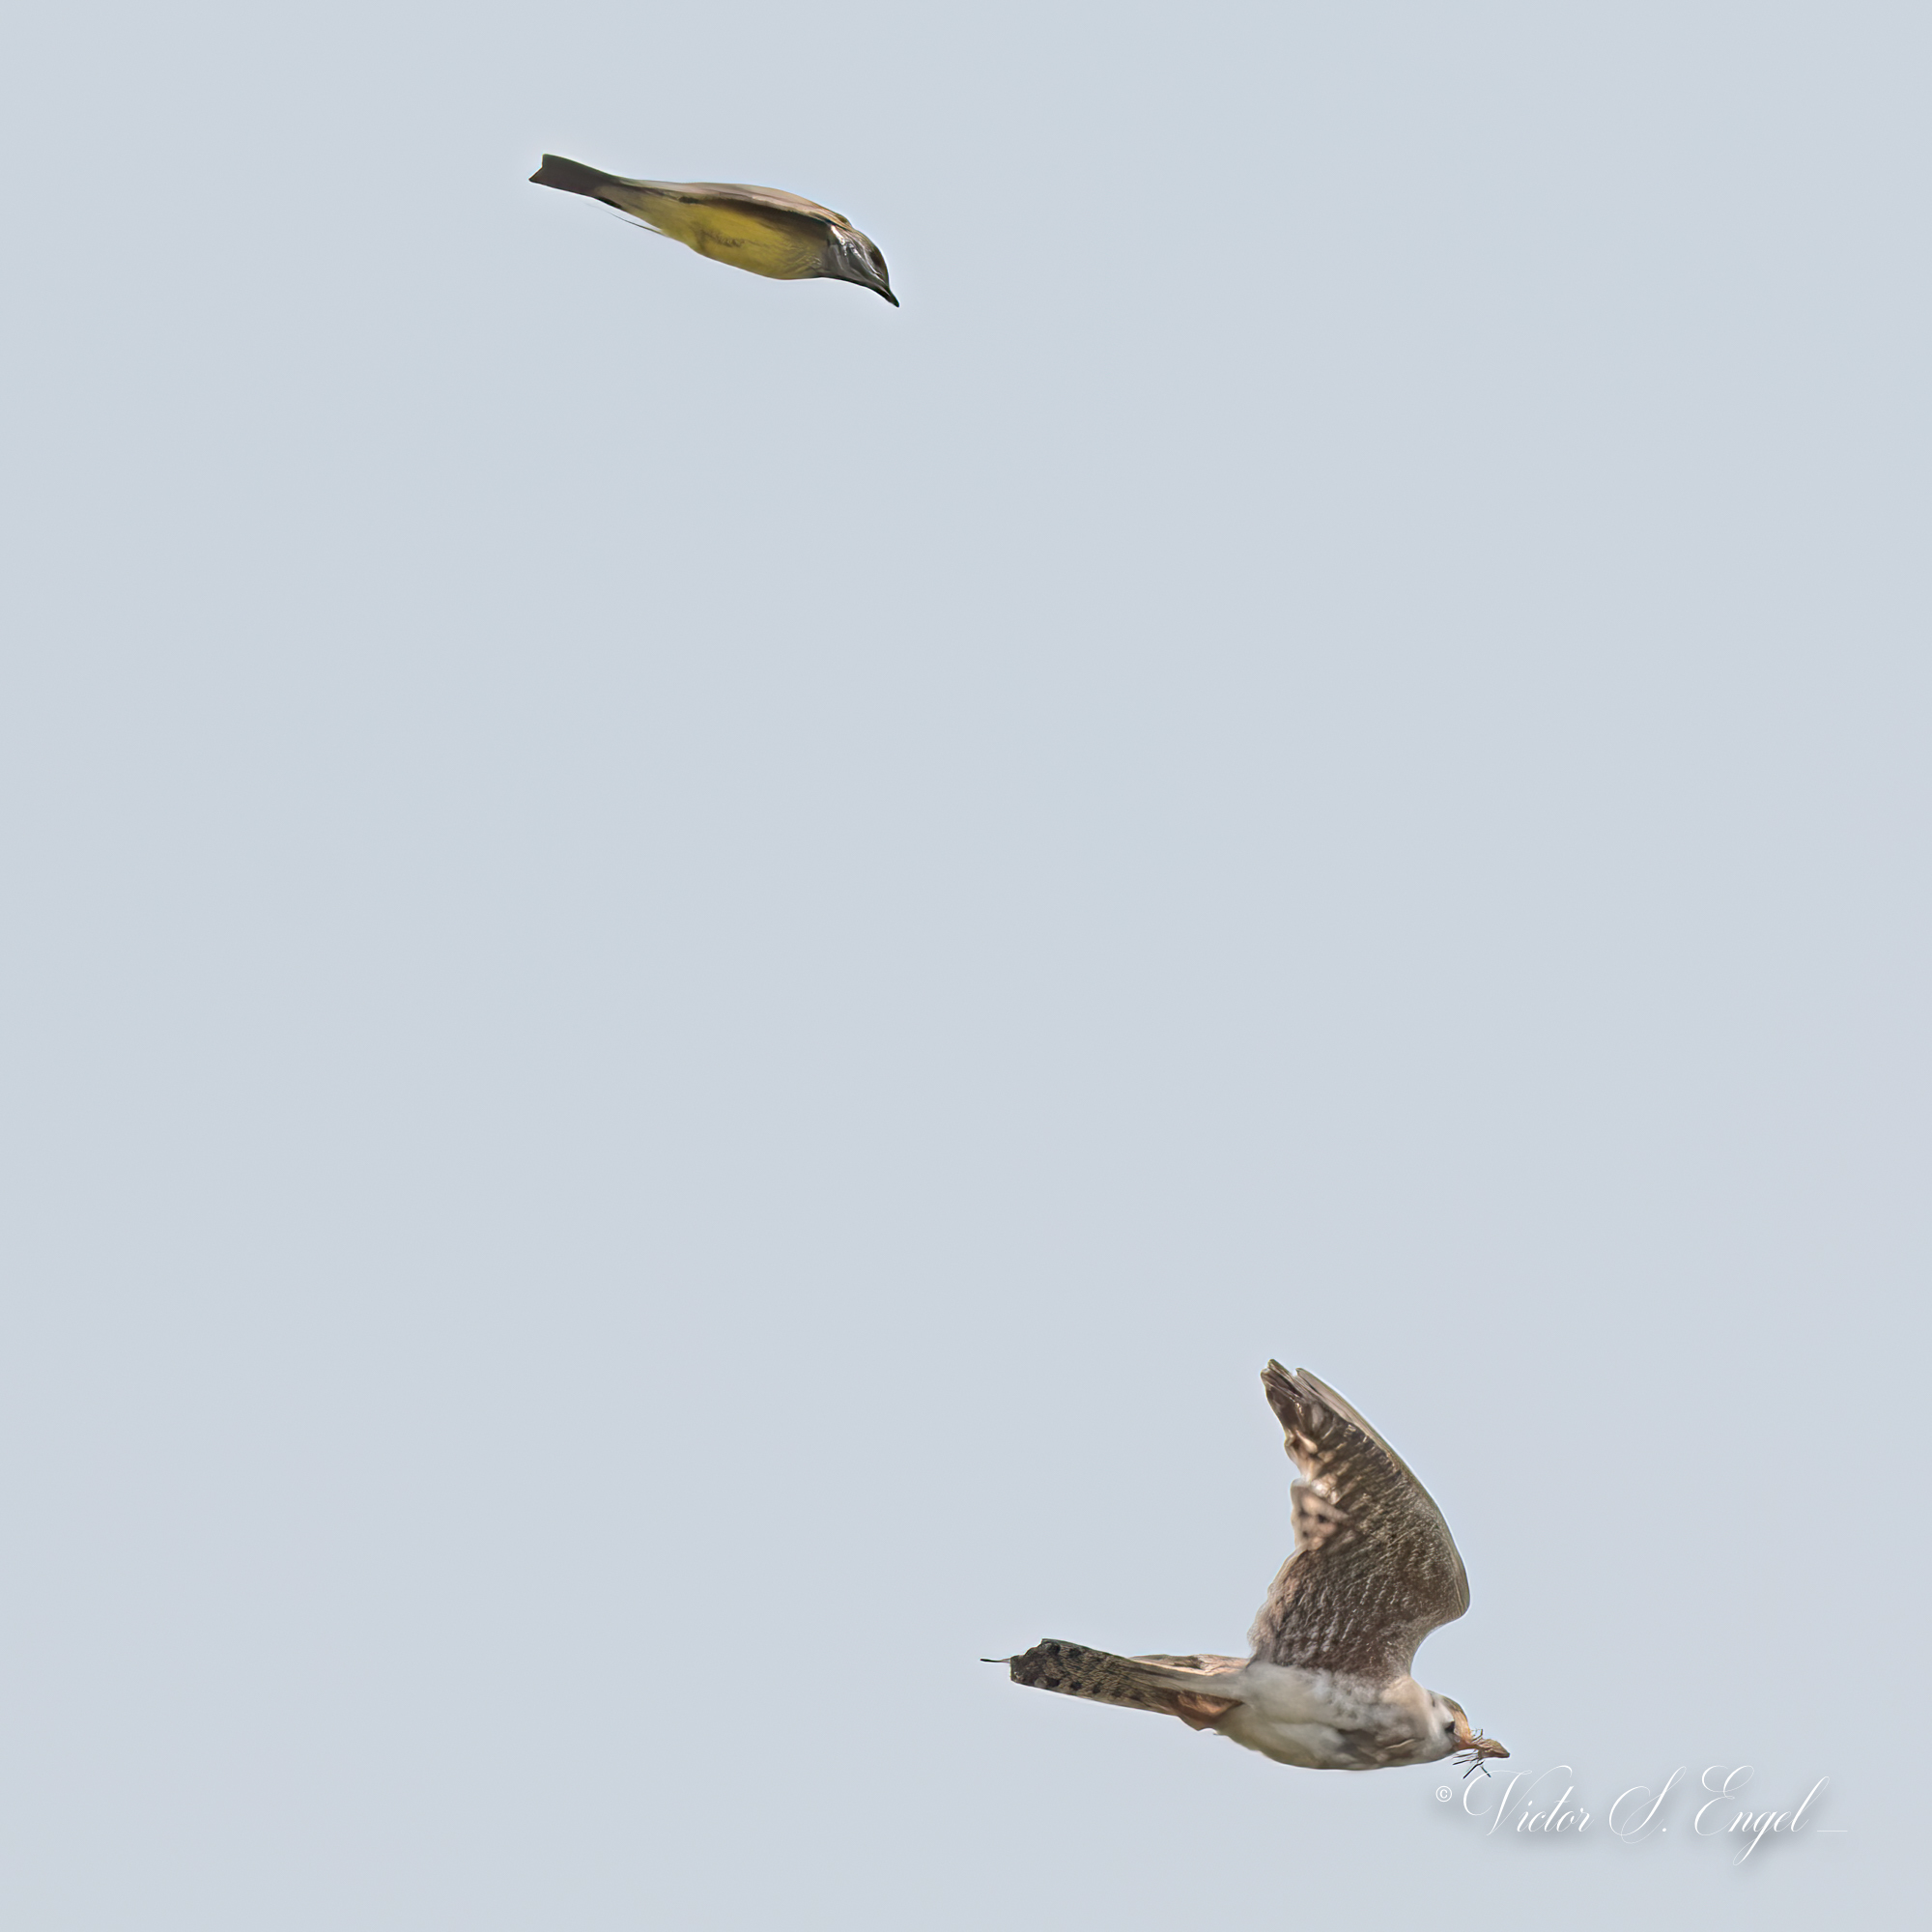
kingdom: Animalia
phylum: Chordata
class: Aves
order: Passeriformes
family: Tyrannidae
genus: Tyrannus
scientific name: Tyrannus verticalis
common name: Western kingbird
